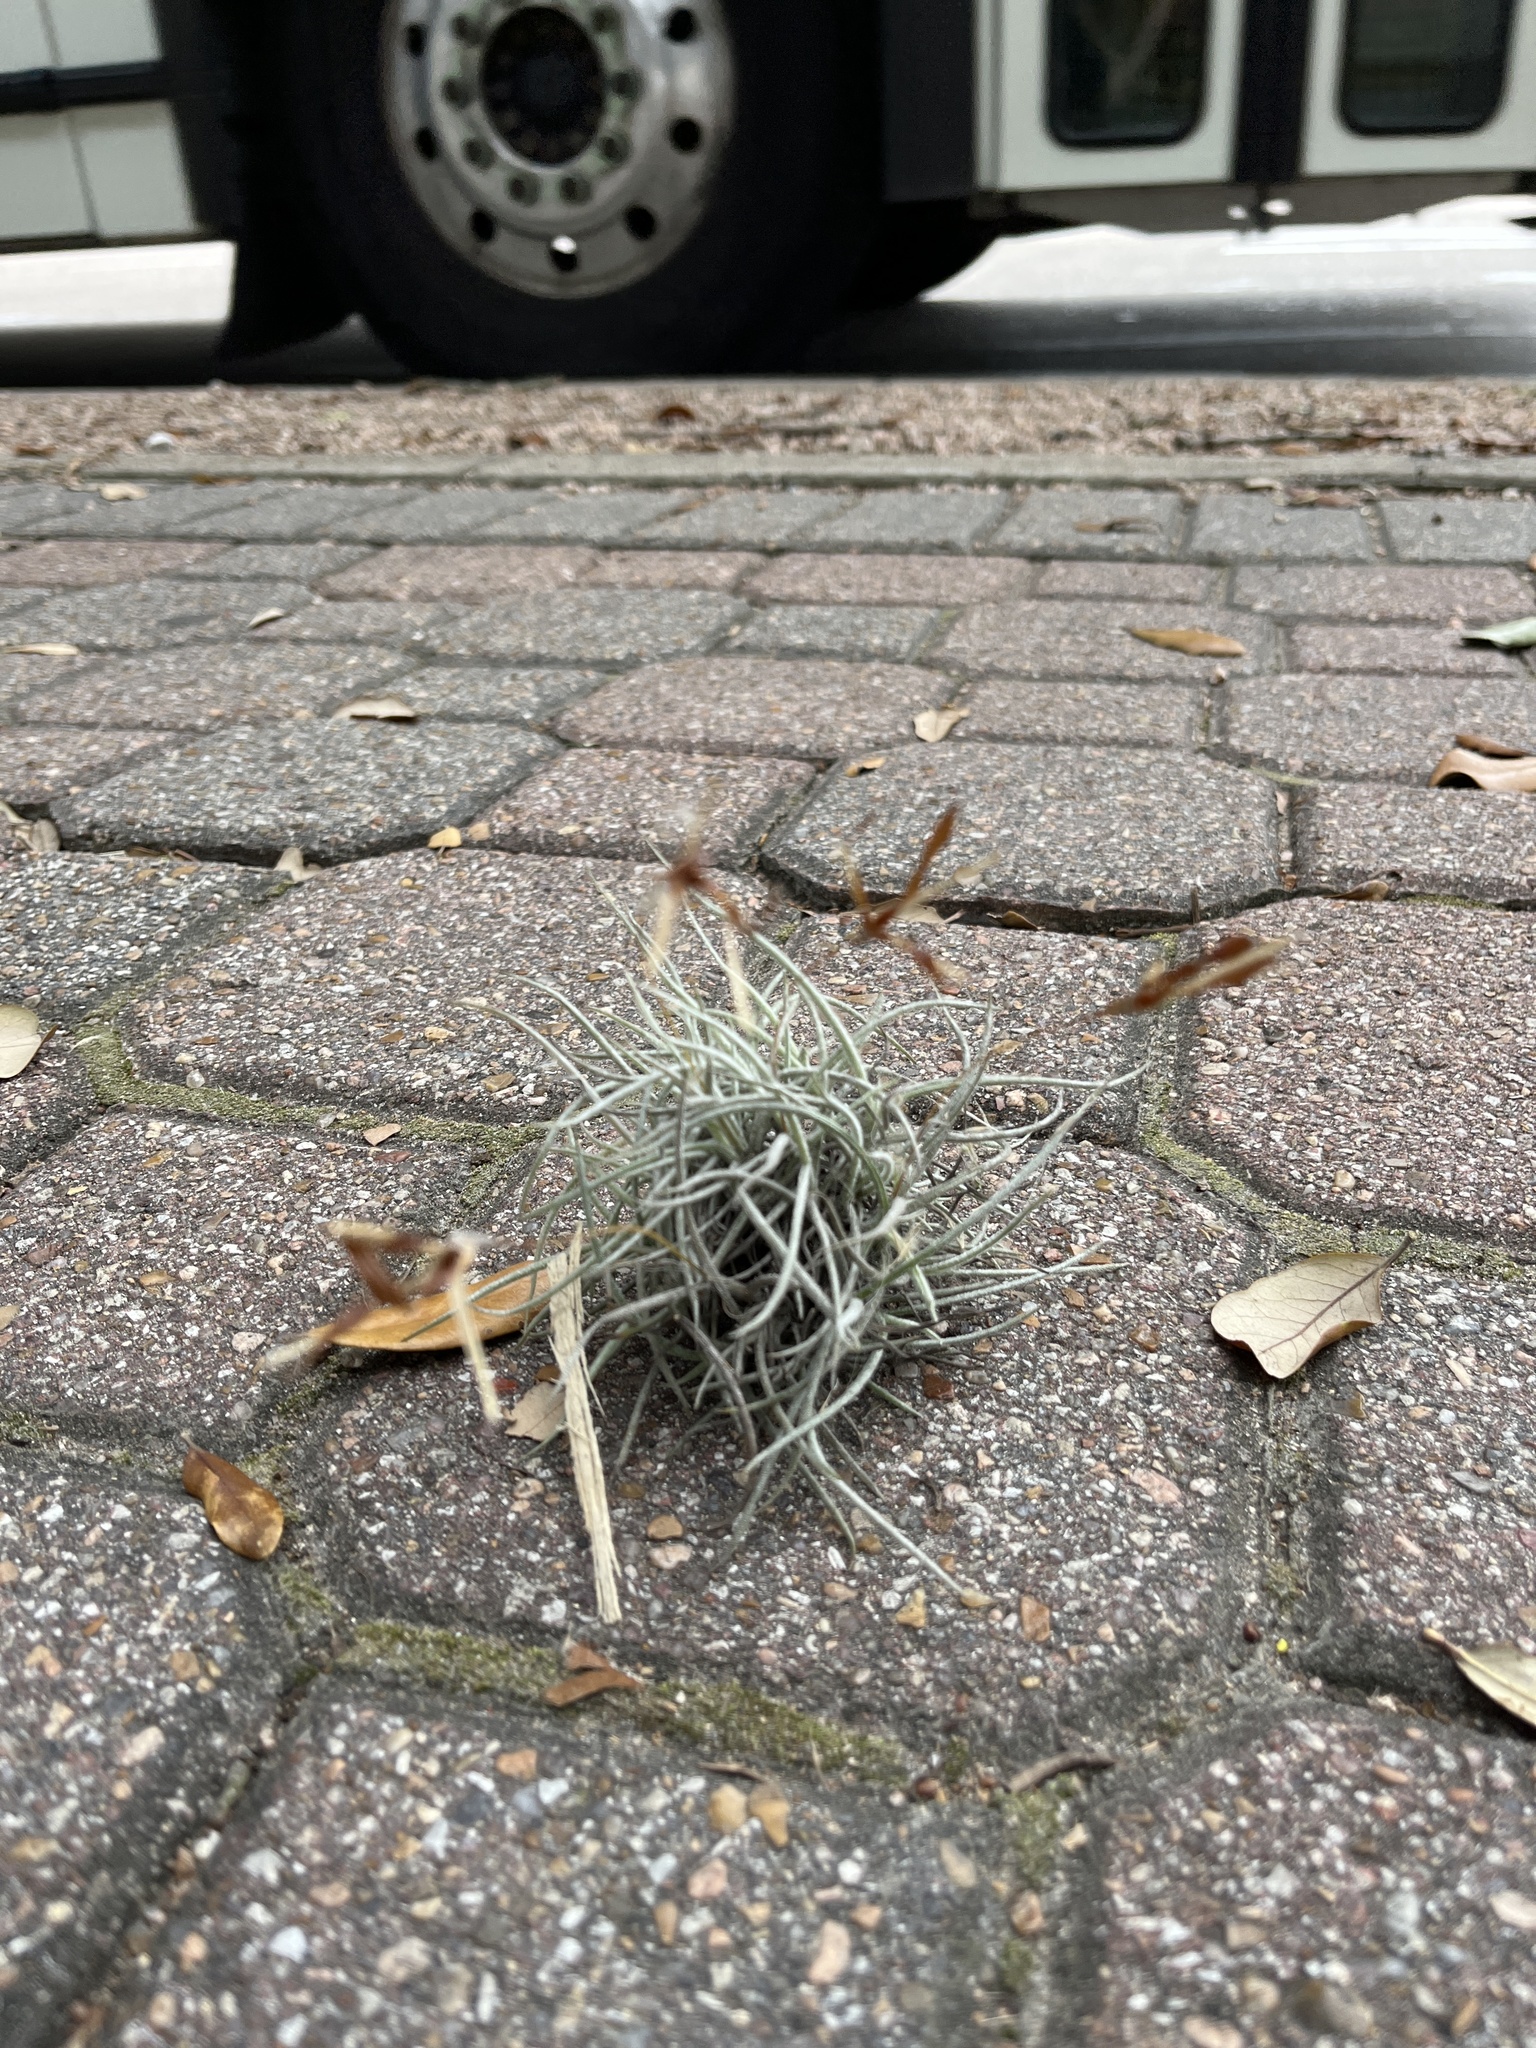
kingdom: Plantae
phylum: Tracheophyta
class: Liliopsida
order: Poales
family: Bromeliaceae
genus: Tillandsia
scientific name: Tillandsia recurvata
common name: Small ballmoss
